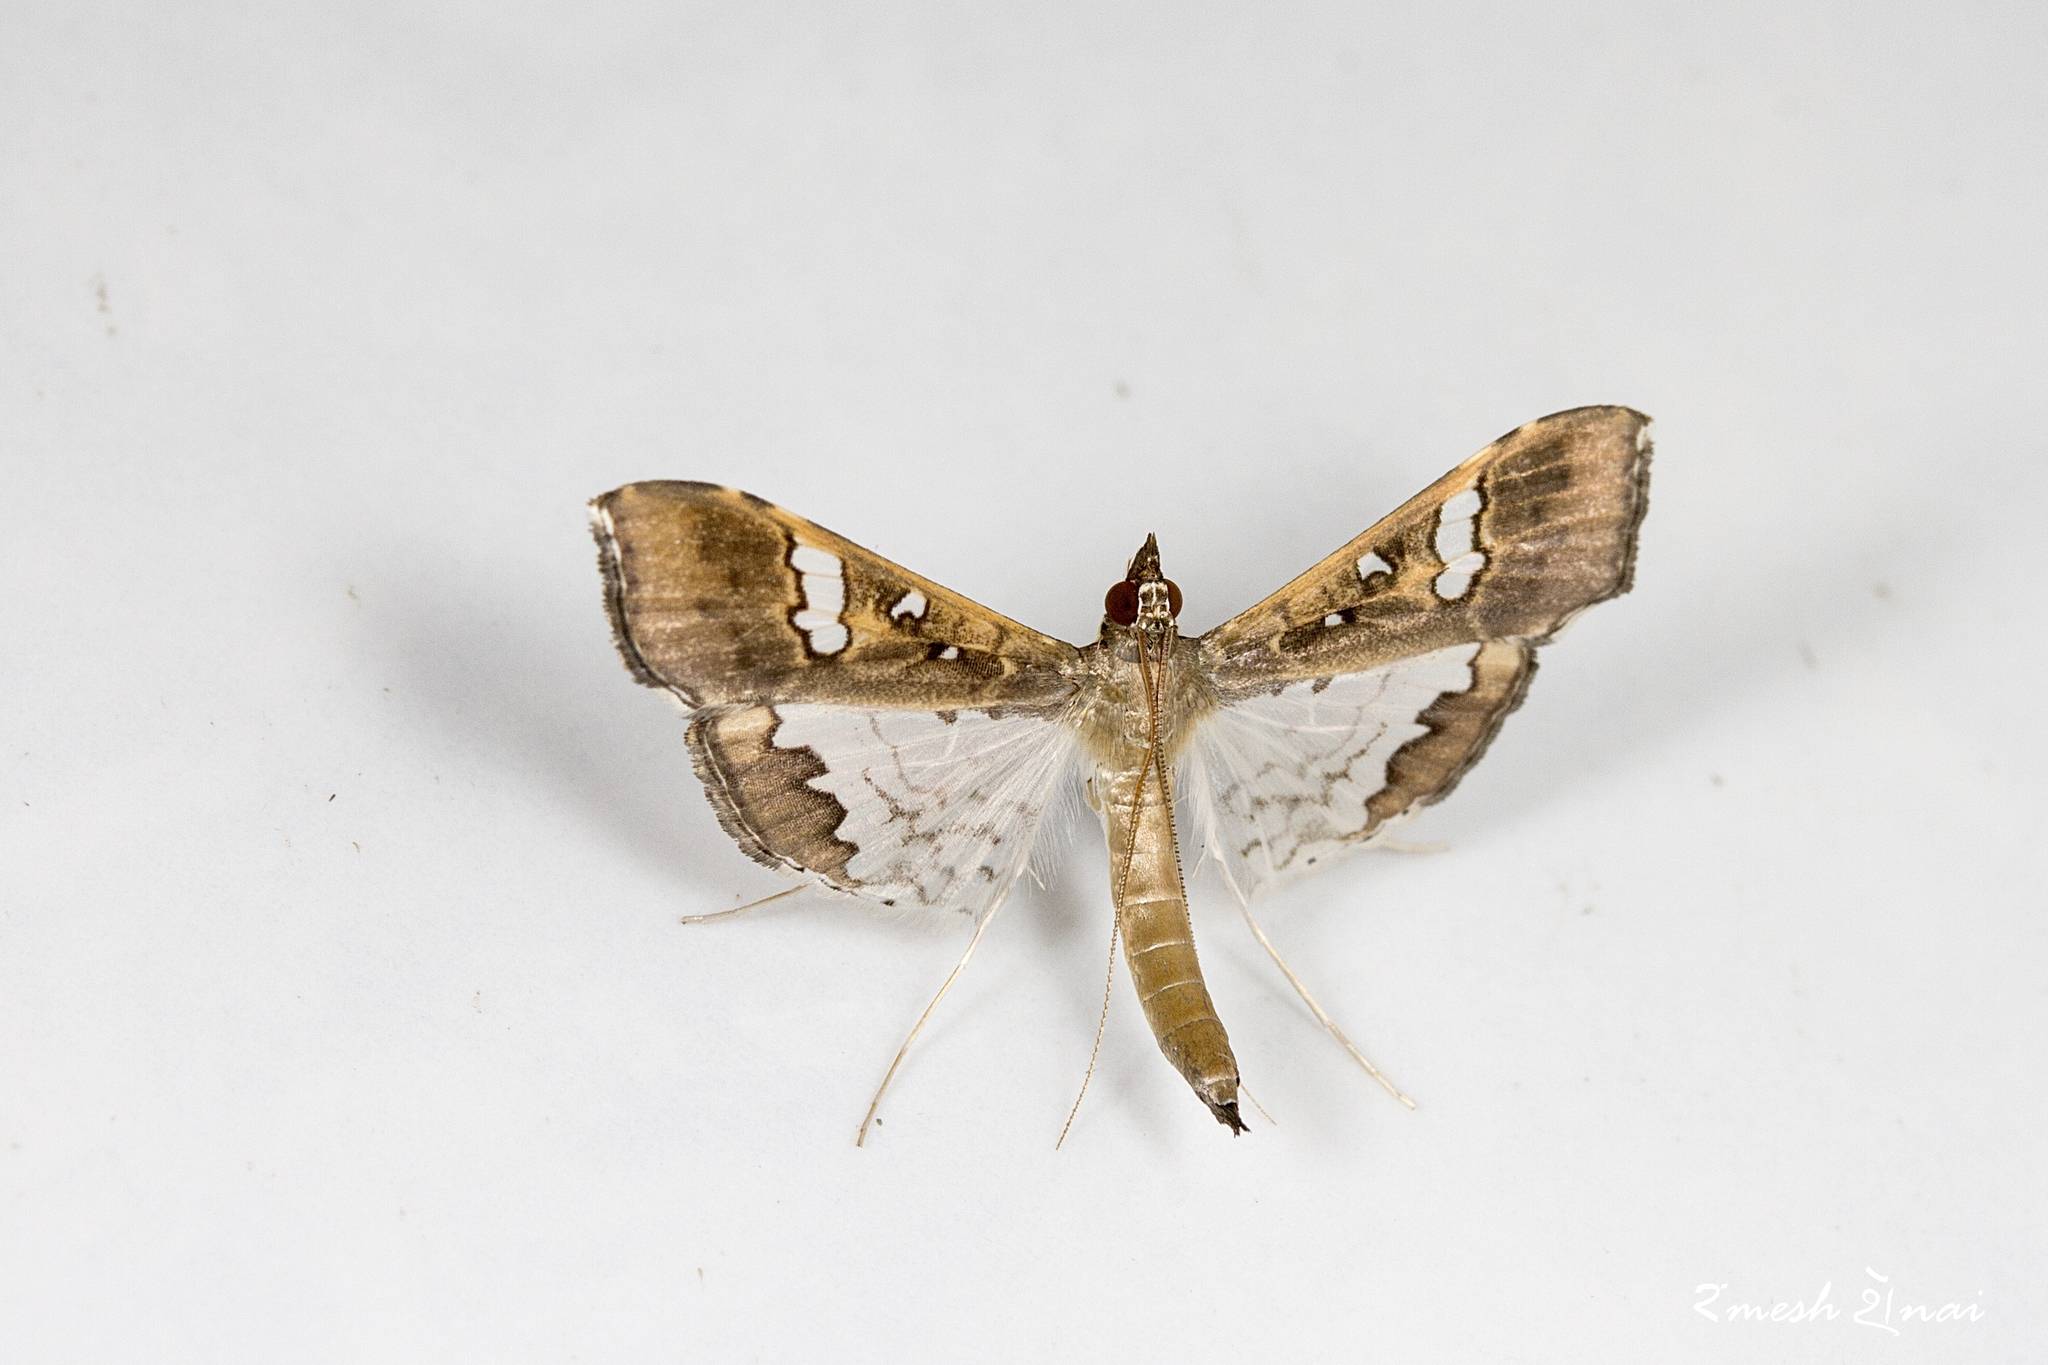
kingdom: Animalia
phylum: Arthropoda
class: Insecta
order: Lepidoptera
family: Crambidae
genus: Maruca
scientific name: Maruca vitrata
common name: Maruca pod borer
